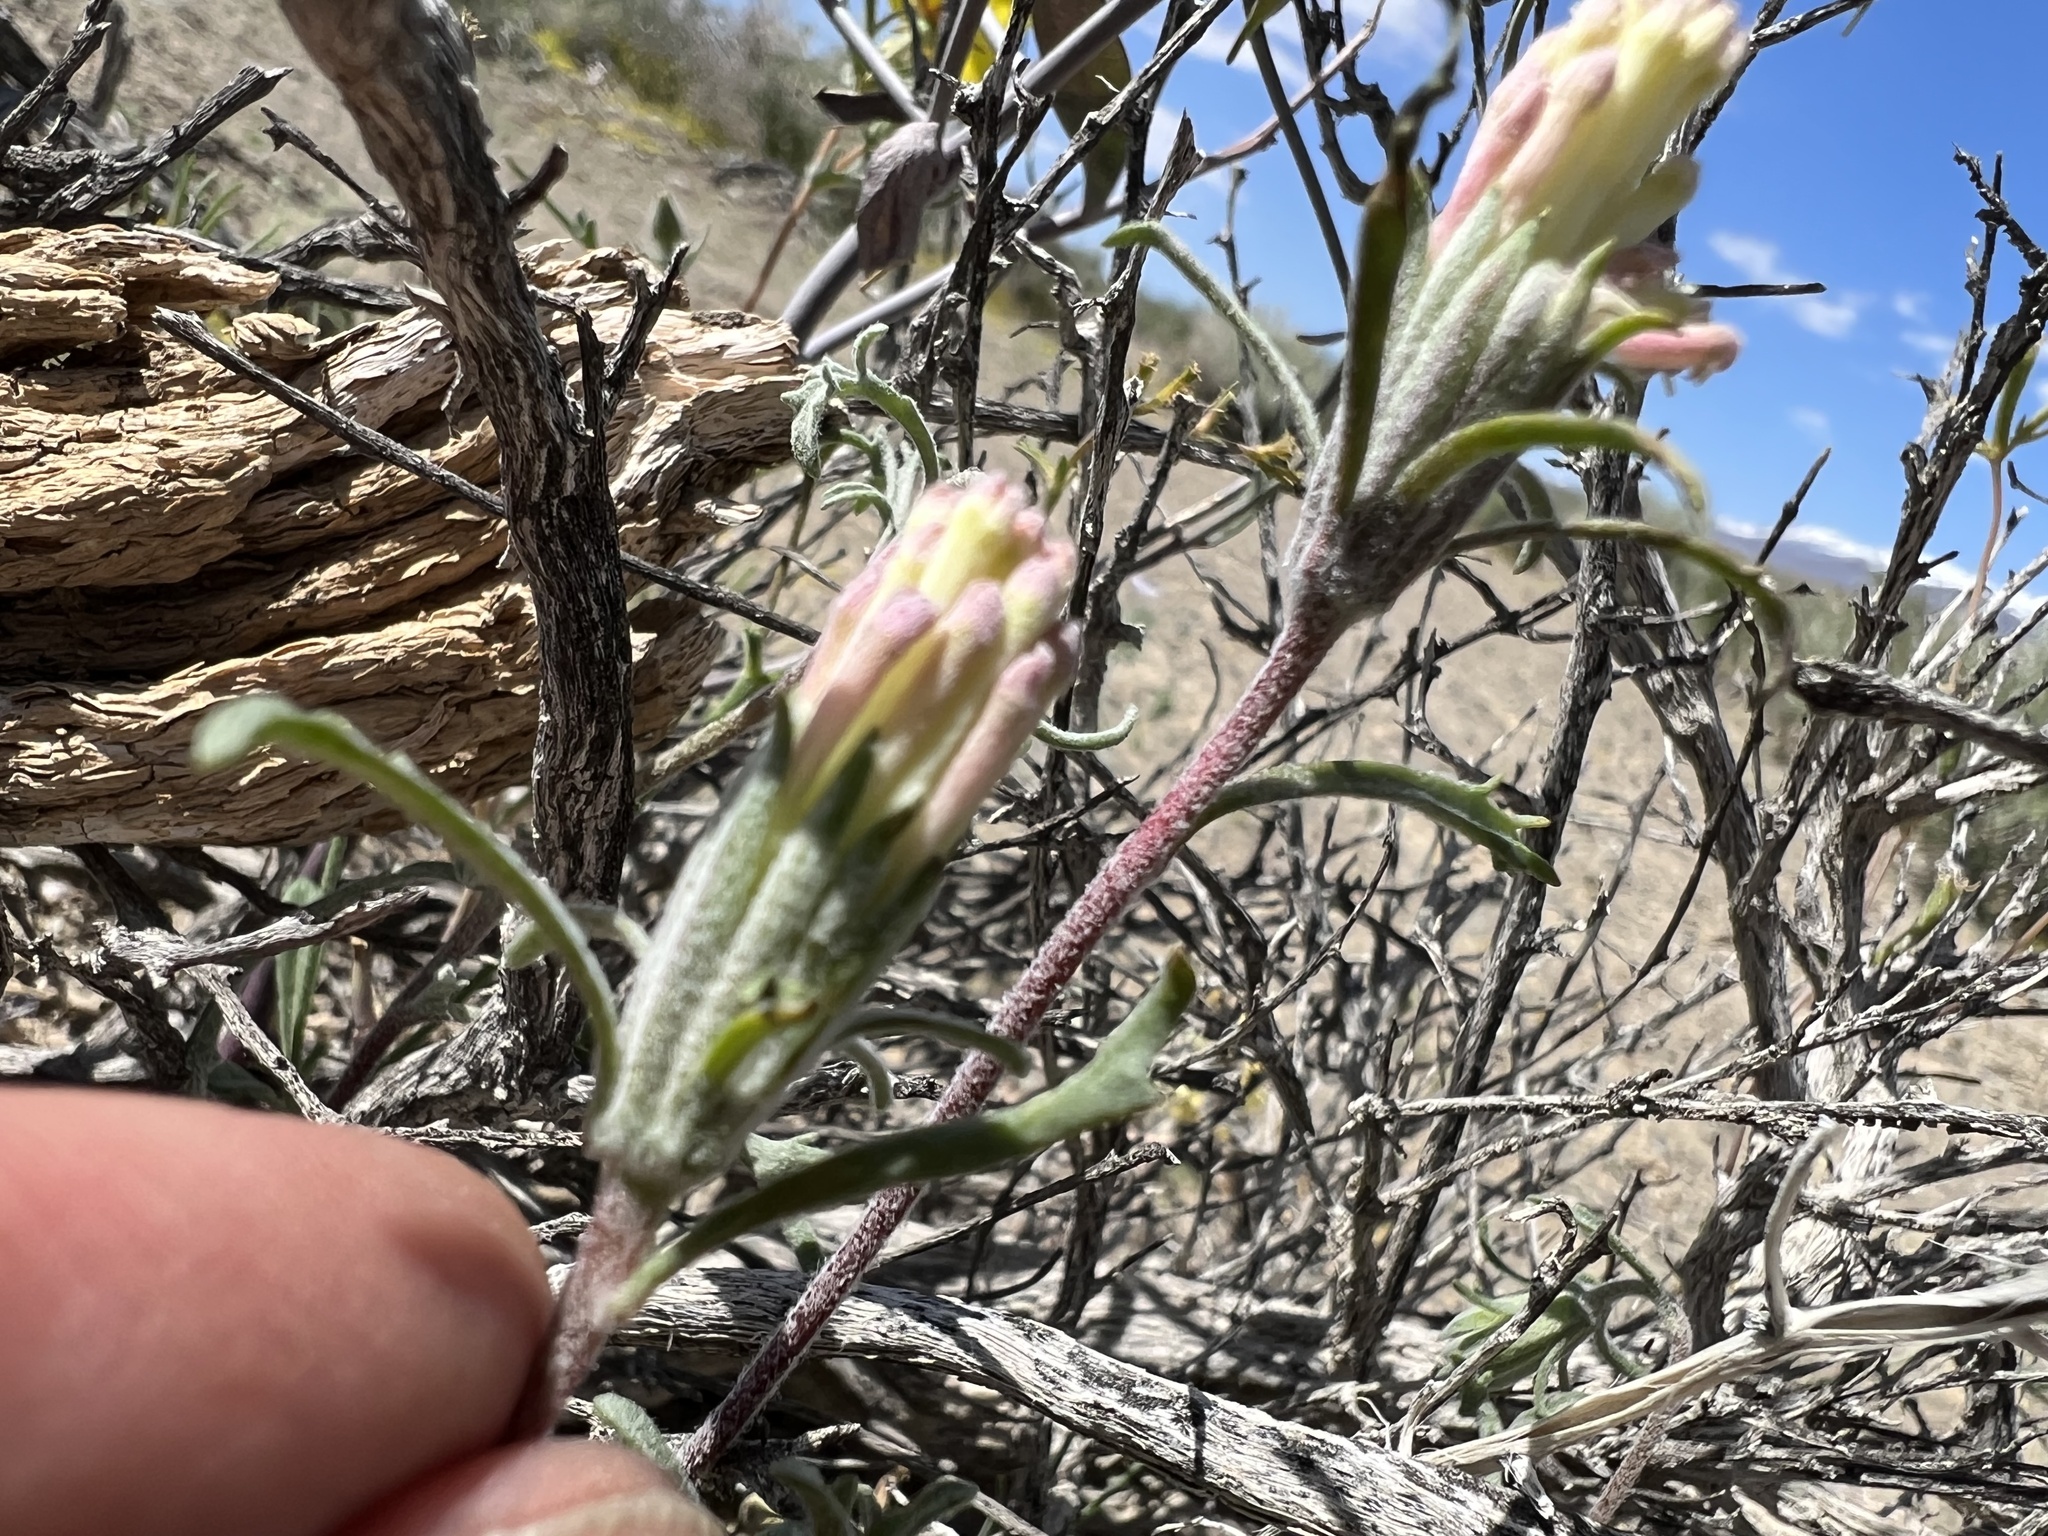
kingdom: Plantae
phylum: Tracheophyta
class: Magnoliopsida
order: Asterales
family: Asteraceae
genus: Chaenactis
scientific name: Chaenactis macrantha
